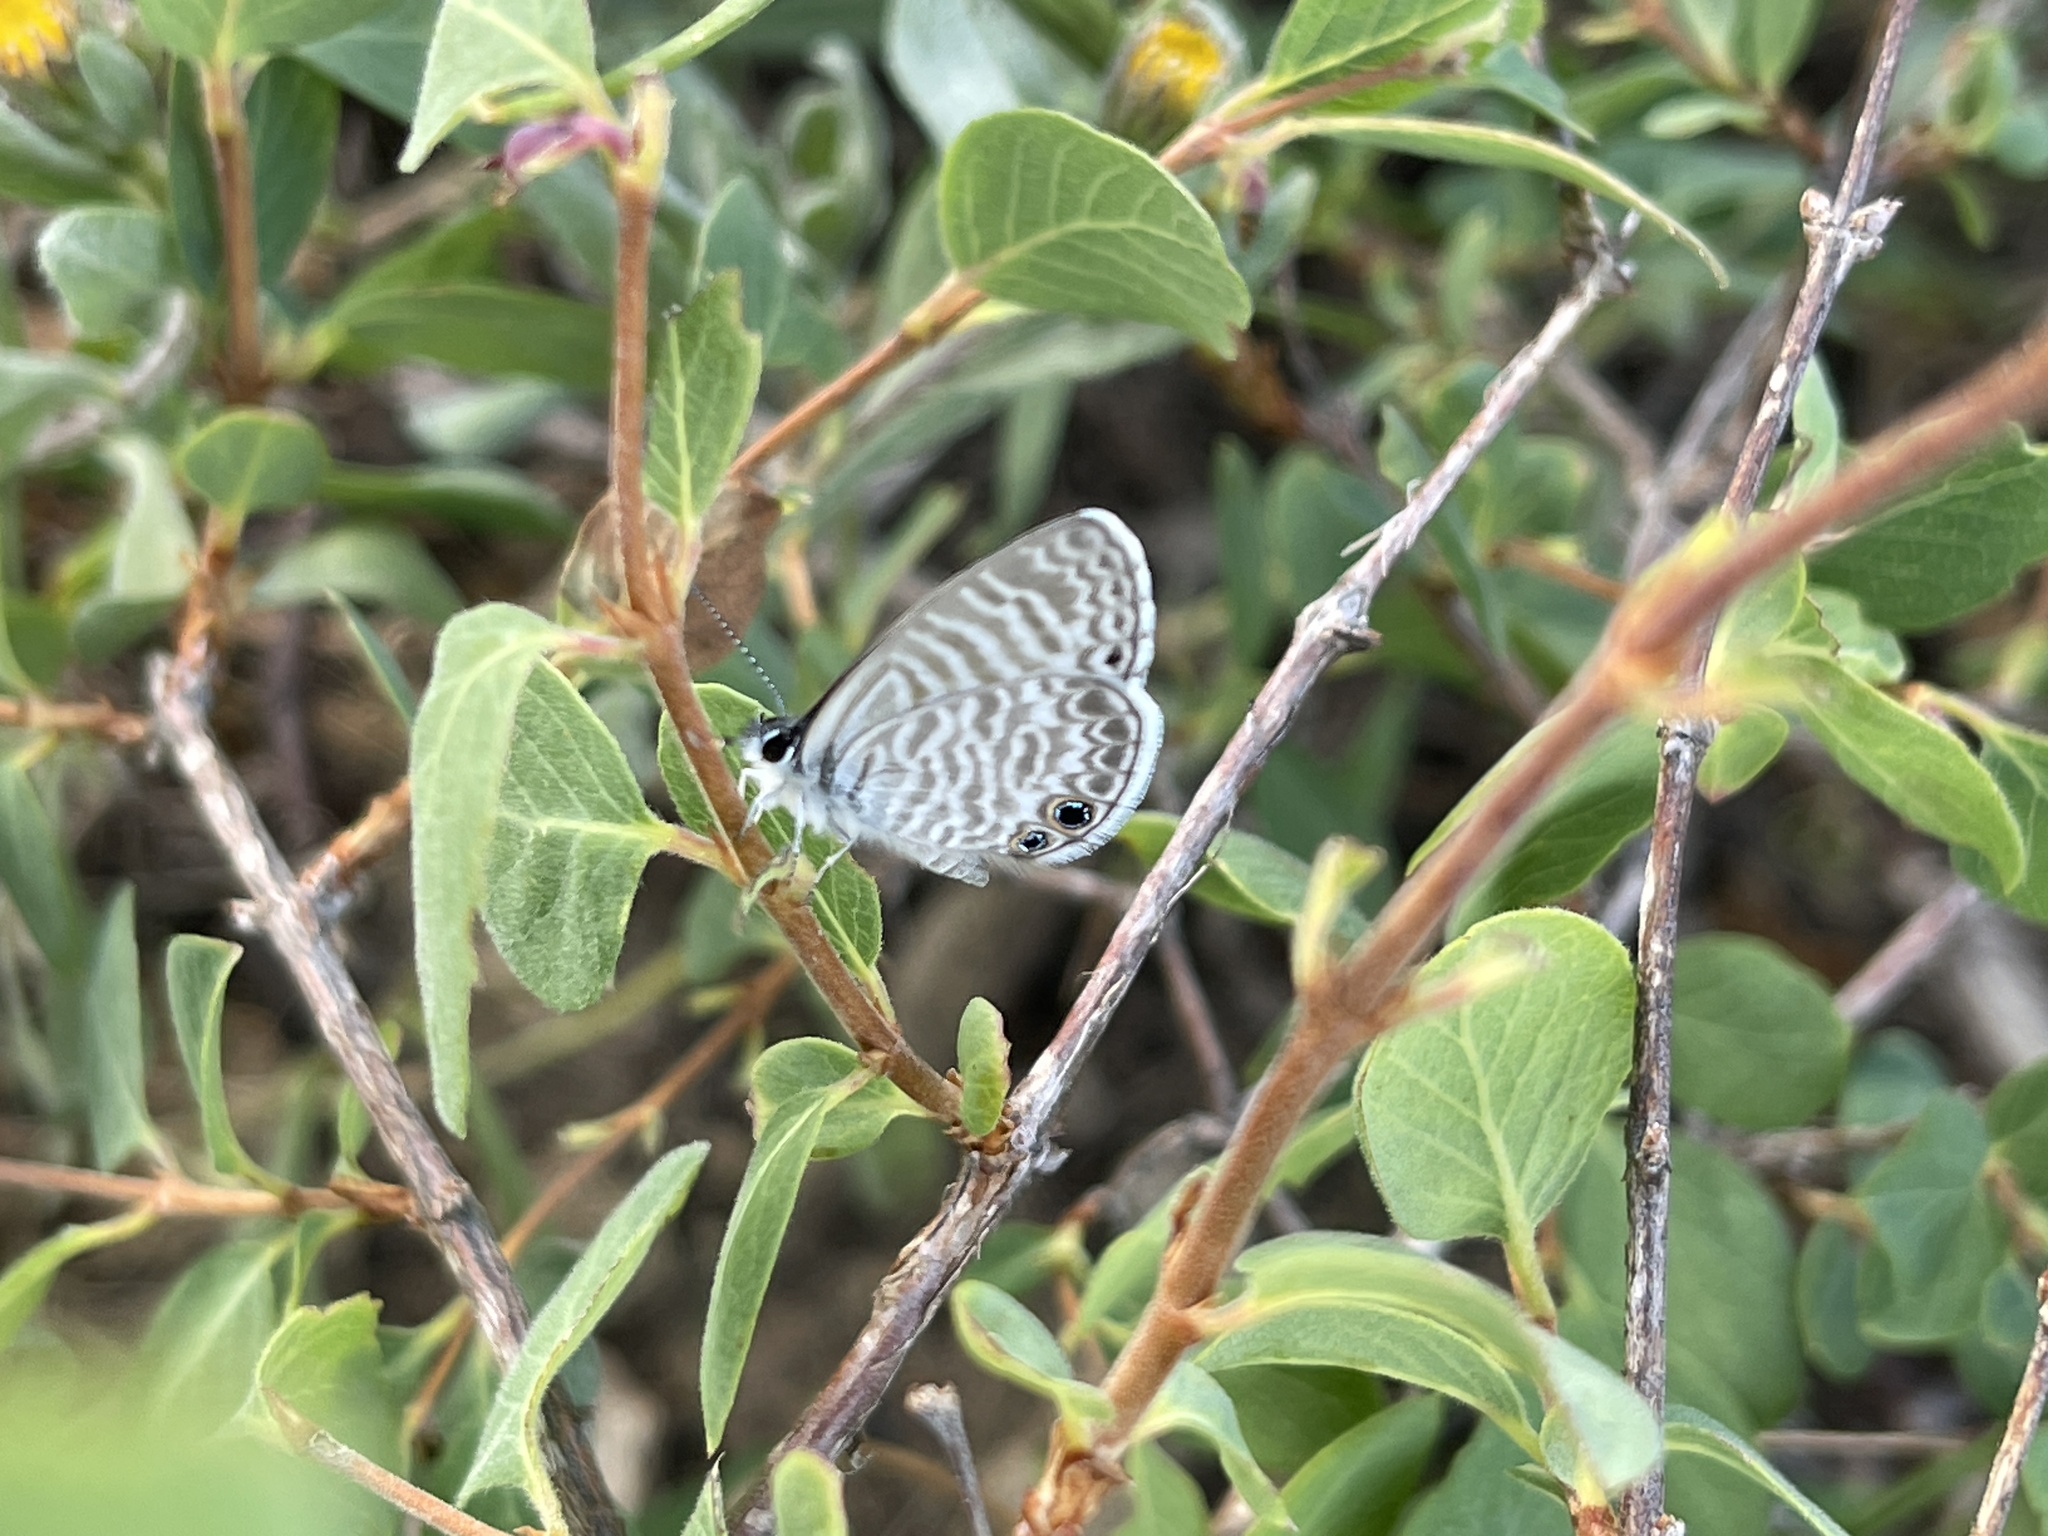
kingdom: Animalia
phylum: Arthropoda
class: Insecta
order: Lepidoptera
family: Lycaenidae
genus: Leptotes
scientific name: Leptotes marina
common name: Marine blue
